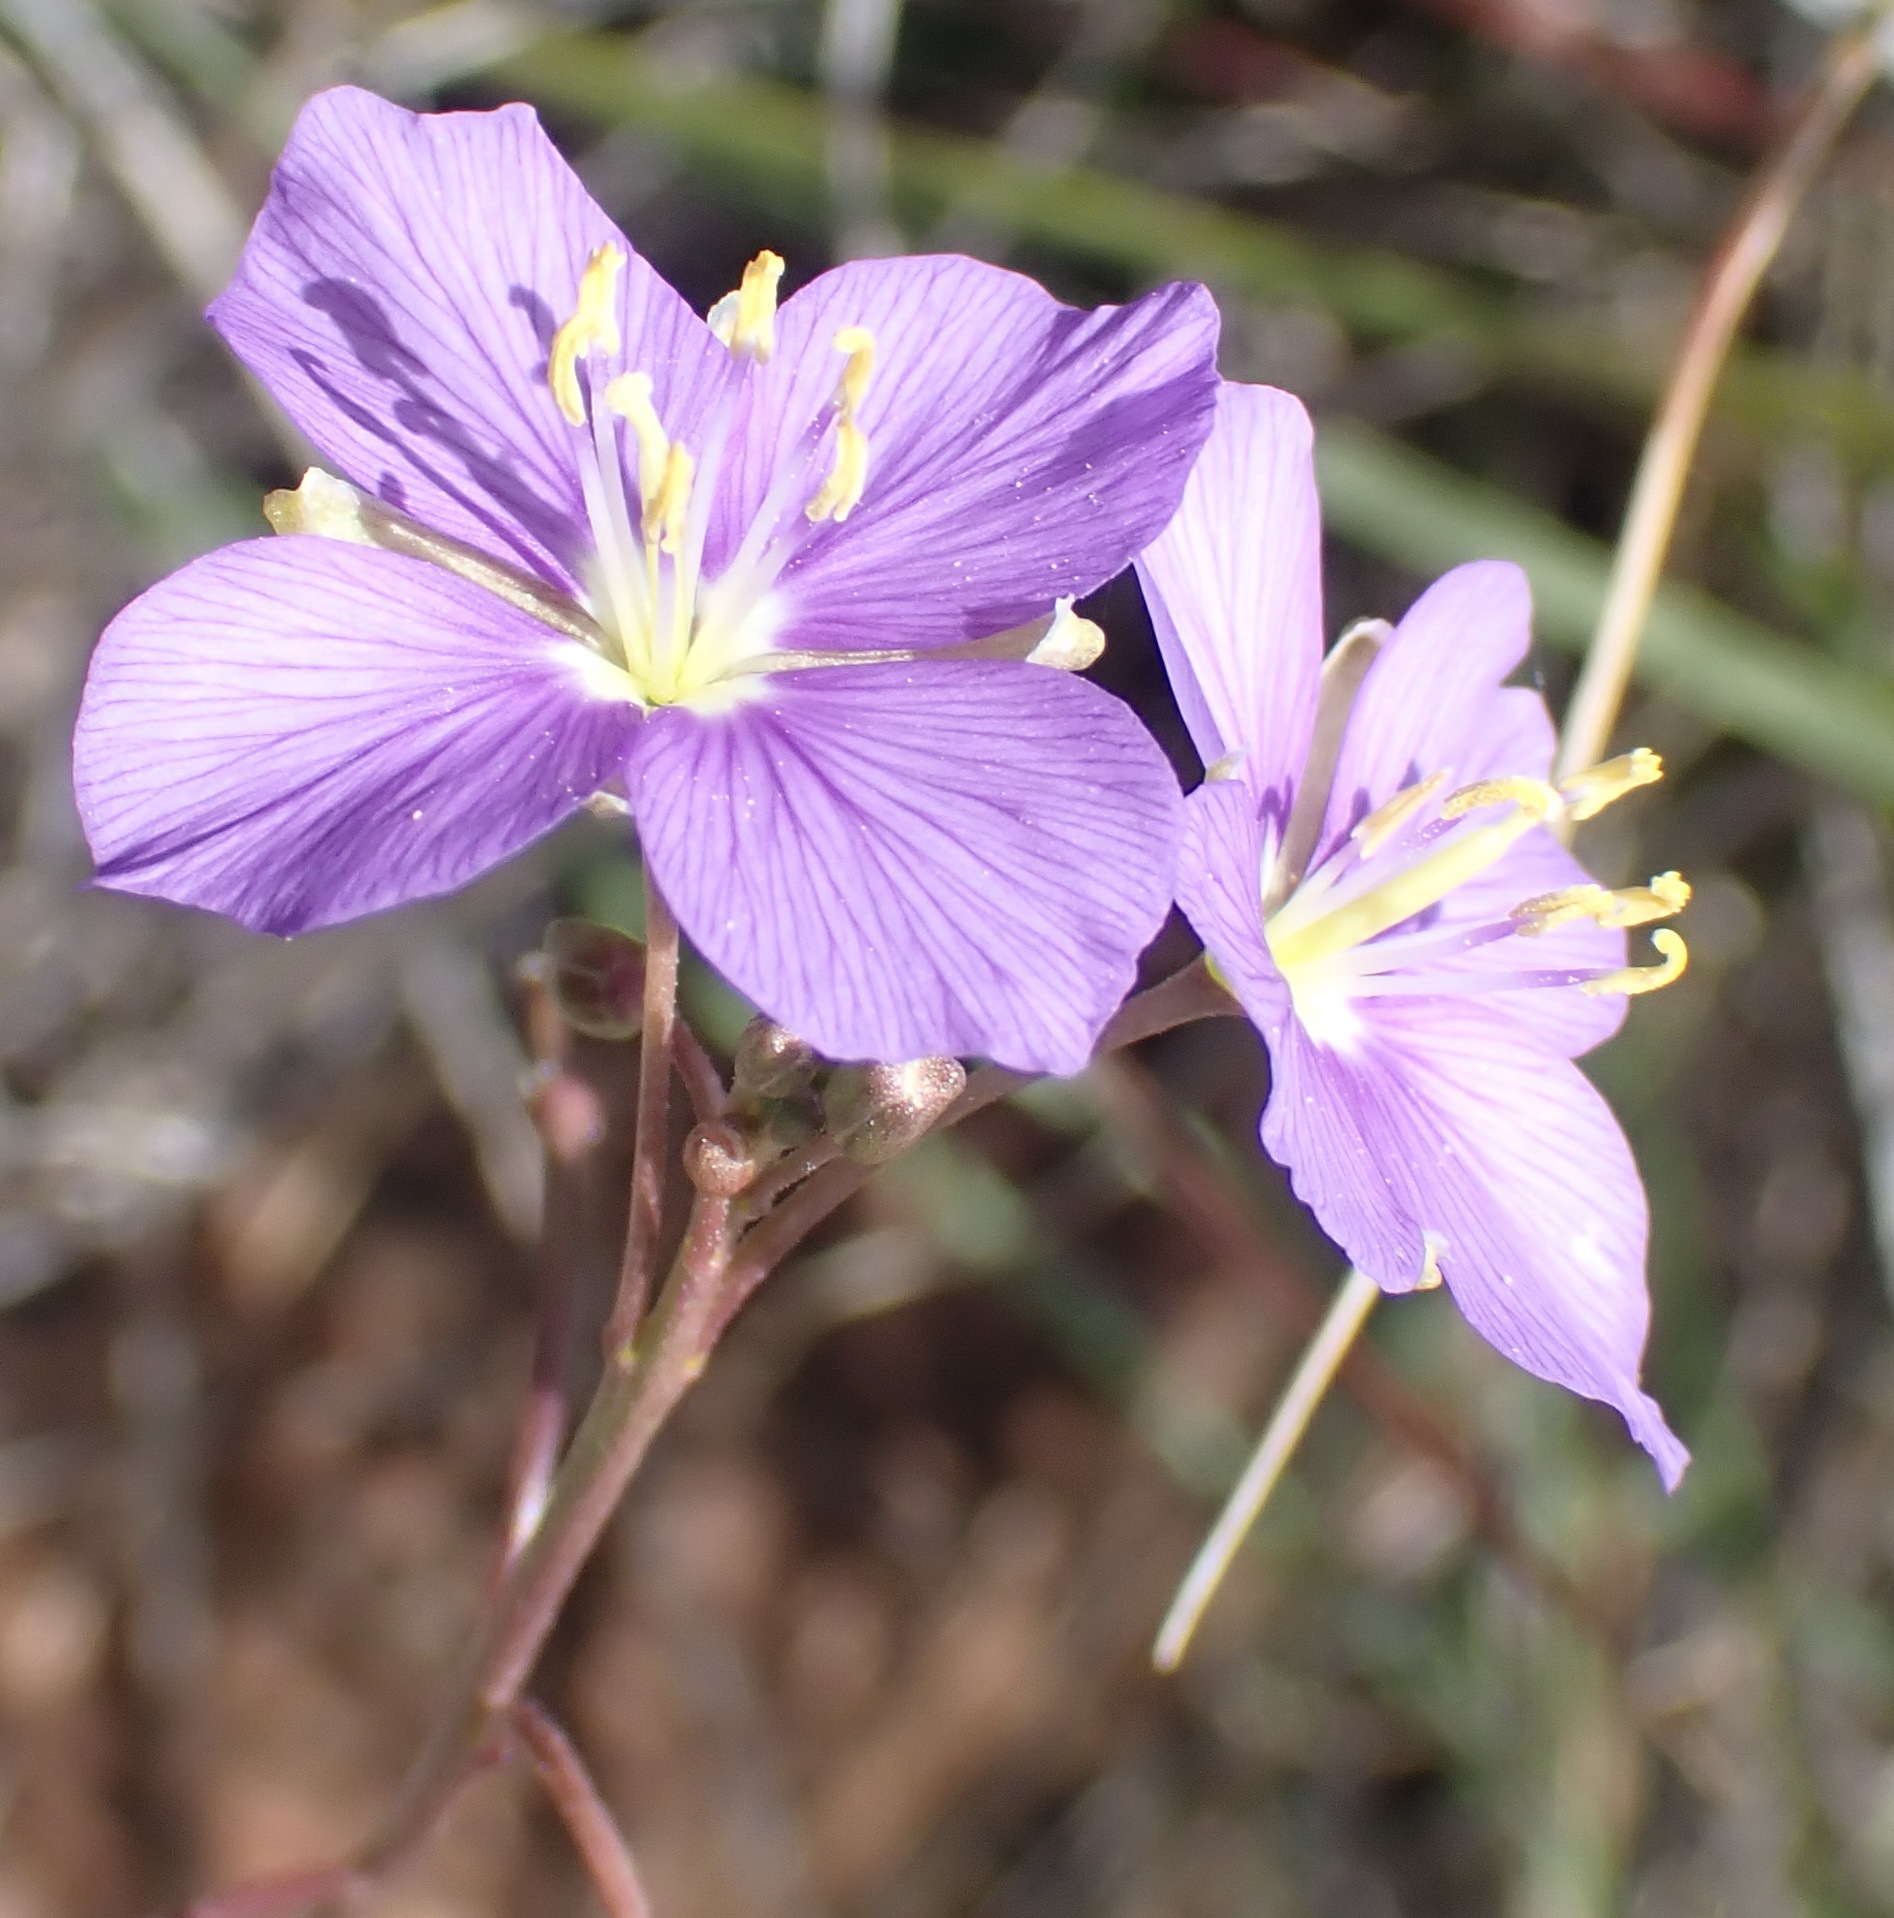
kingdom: Plantae
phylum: Tracheophyta
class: Magnoliopsida
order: Brassicales
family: Brassicaceae
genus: Heliophila
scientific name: Heliophila suavissima
